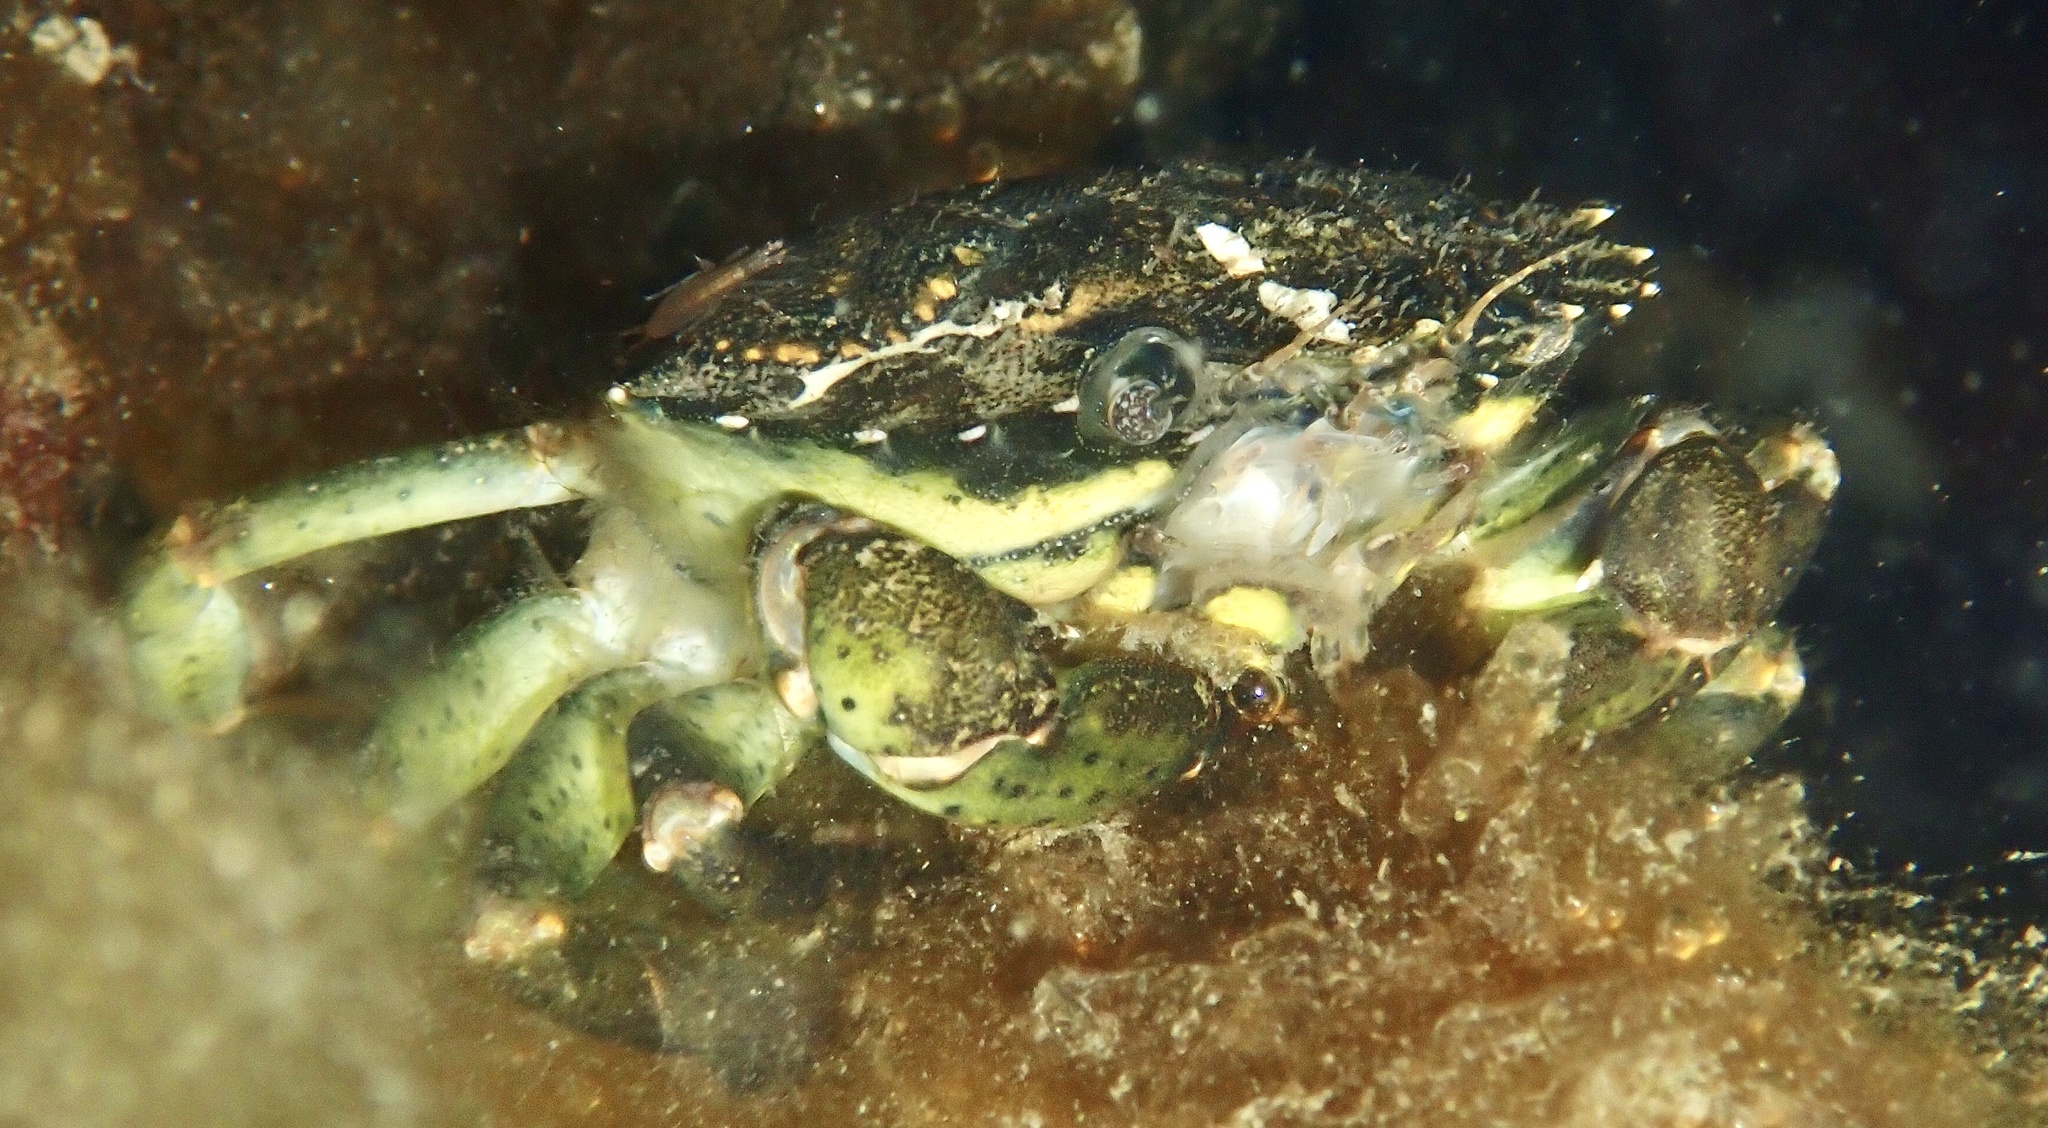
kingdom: Animalia
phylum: Arthropoda
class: Malacostraca
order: Decapoda
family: Carcinidae
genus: Carcinus
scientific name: Carcinus maenas
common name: European green crab
